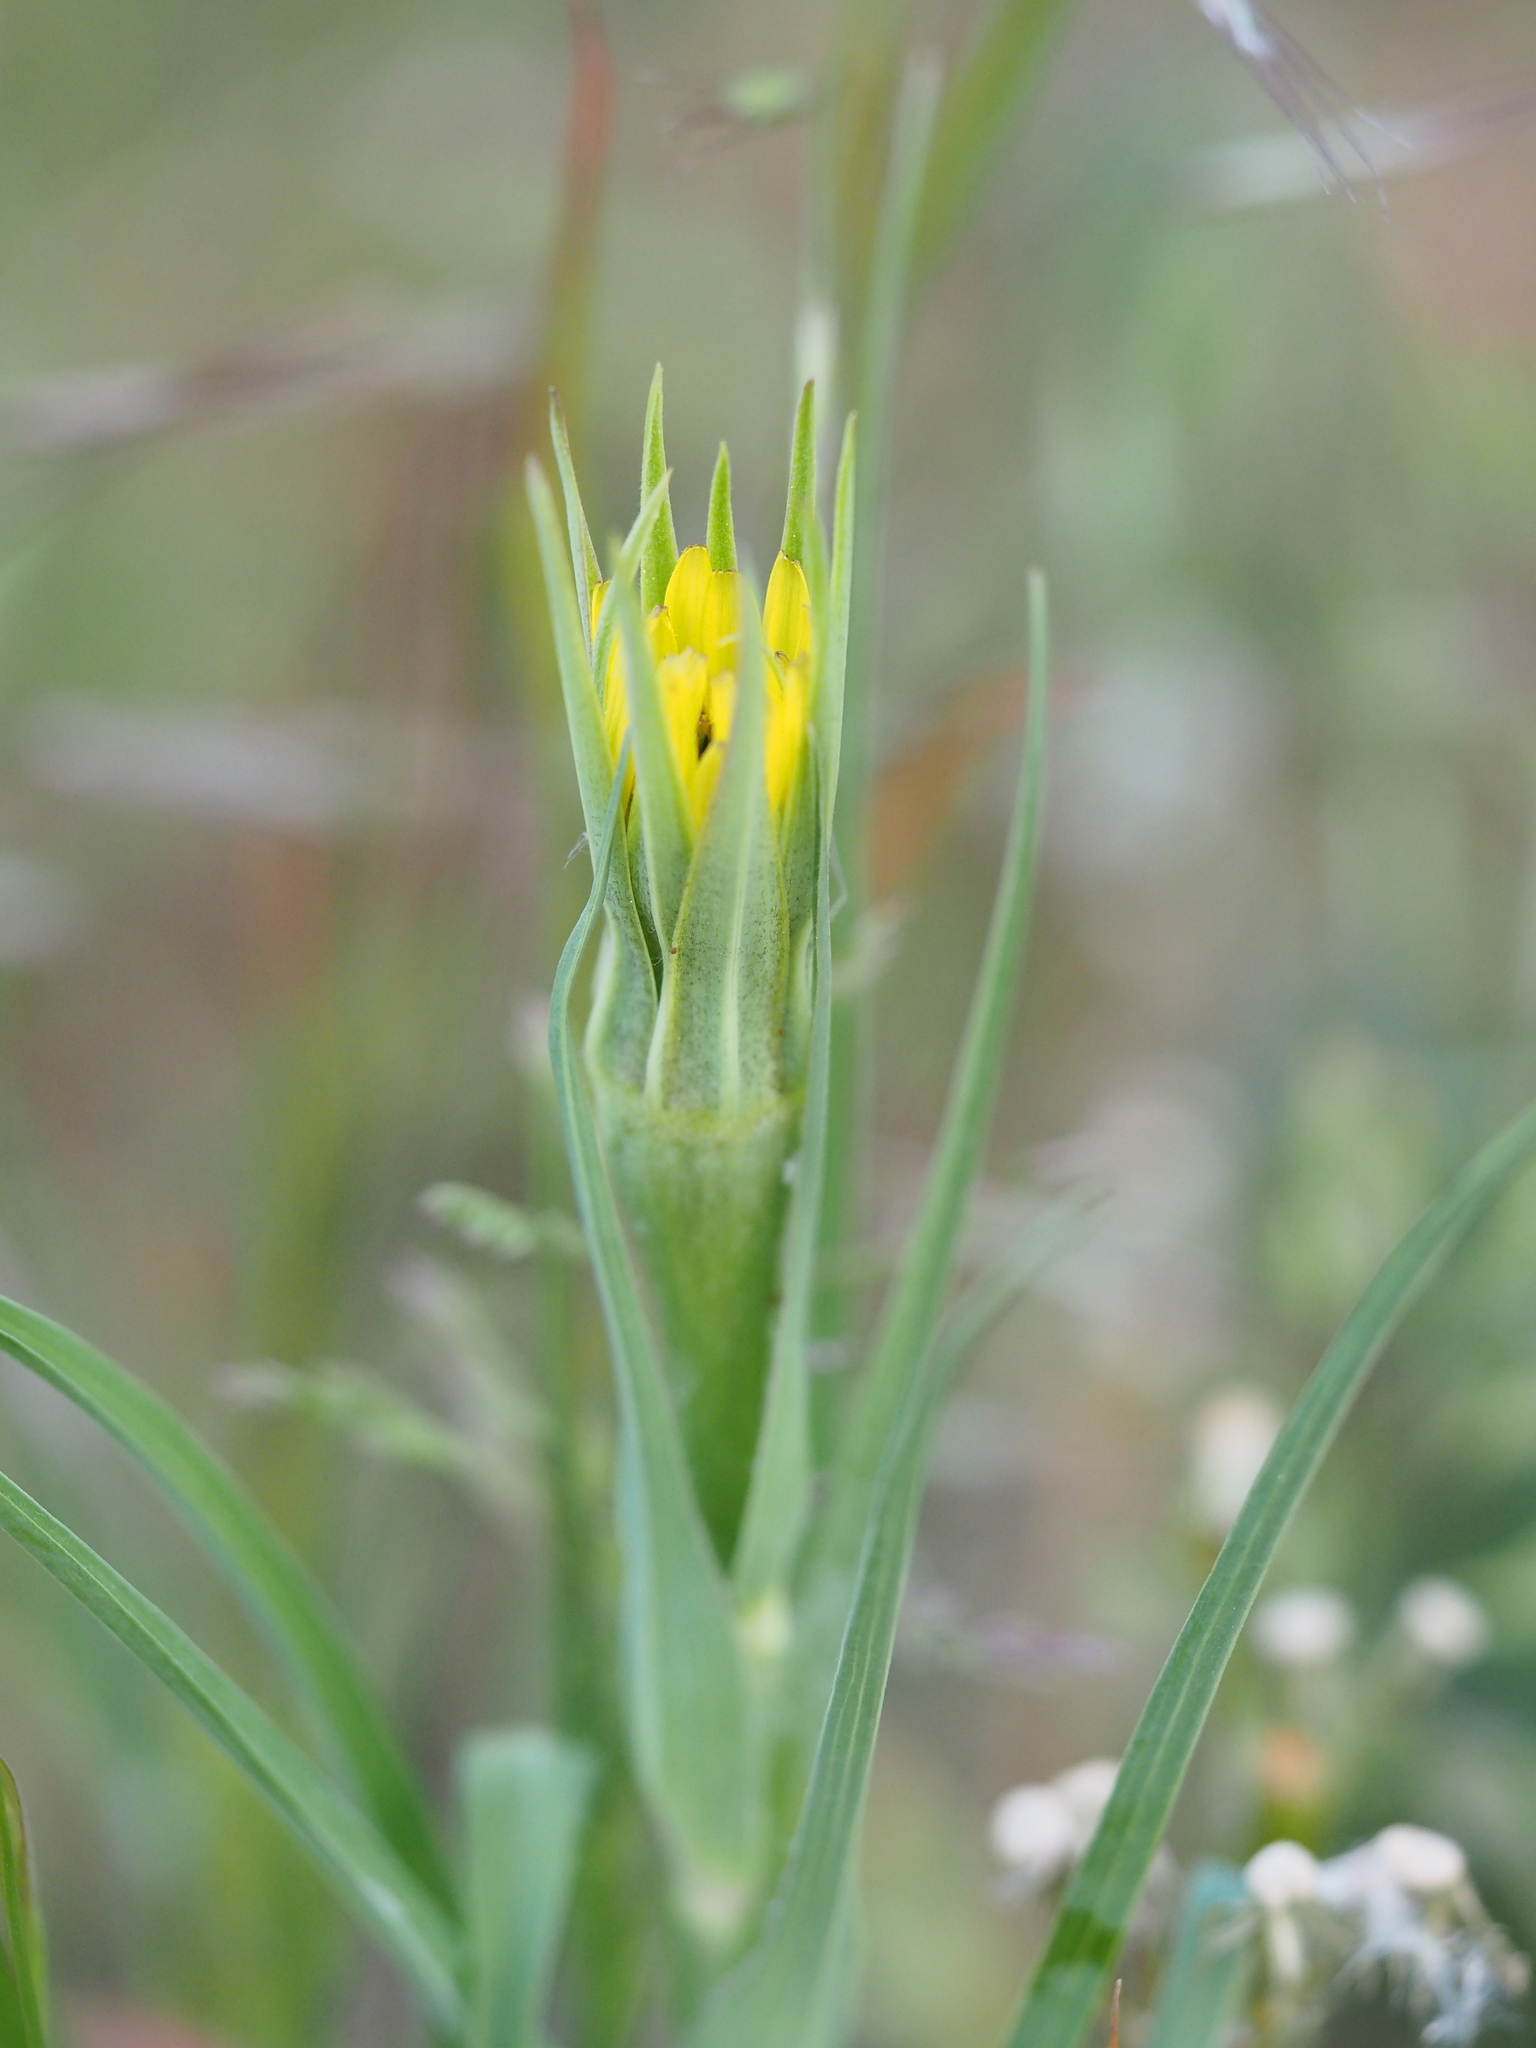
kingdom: Plantae
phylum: Tracheophyta
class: Magnoliopsida
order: Asterales
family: Asteraceae
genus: Tragopogon
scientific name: Tragopogon dubius
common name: Yellow salsify
